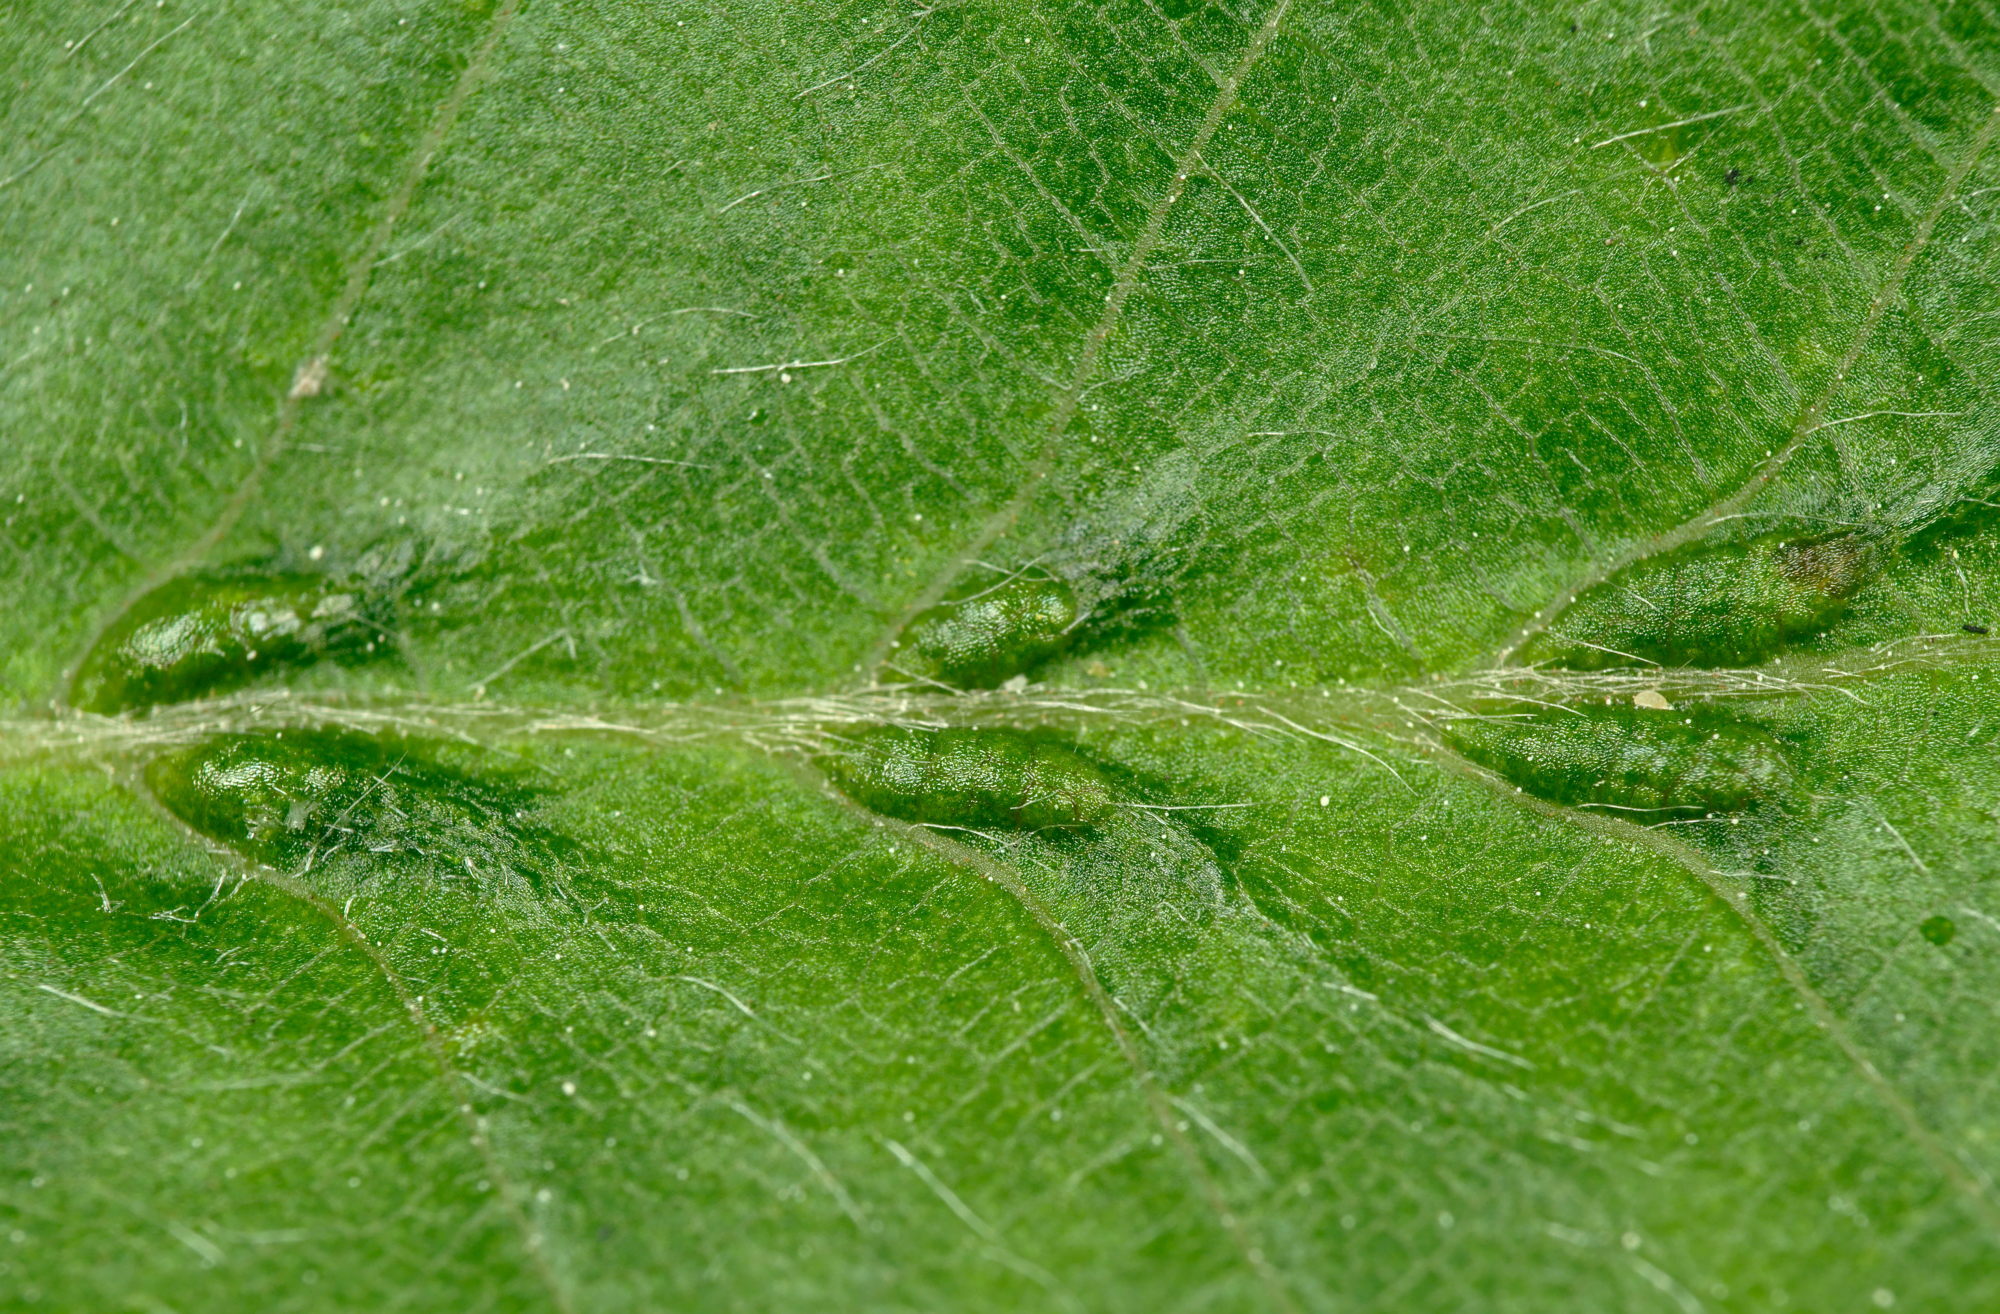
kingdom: Animalia
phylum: Arthropoda
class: Arachnida
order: Trombidiformes
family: Eriophyidae
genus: Aceria
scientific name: Aceria tenellus
